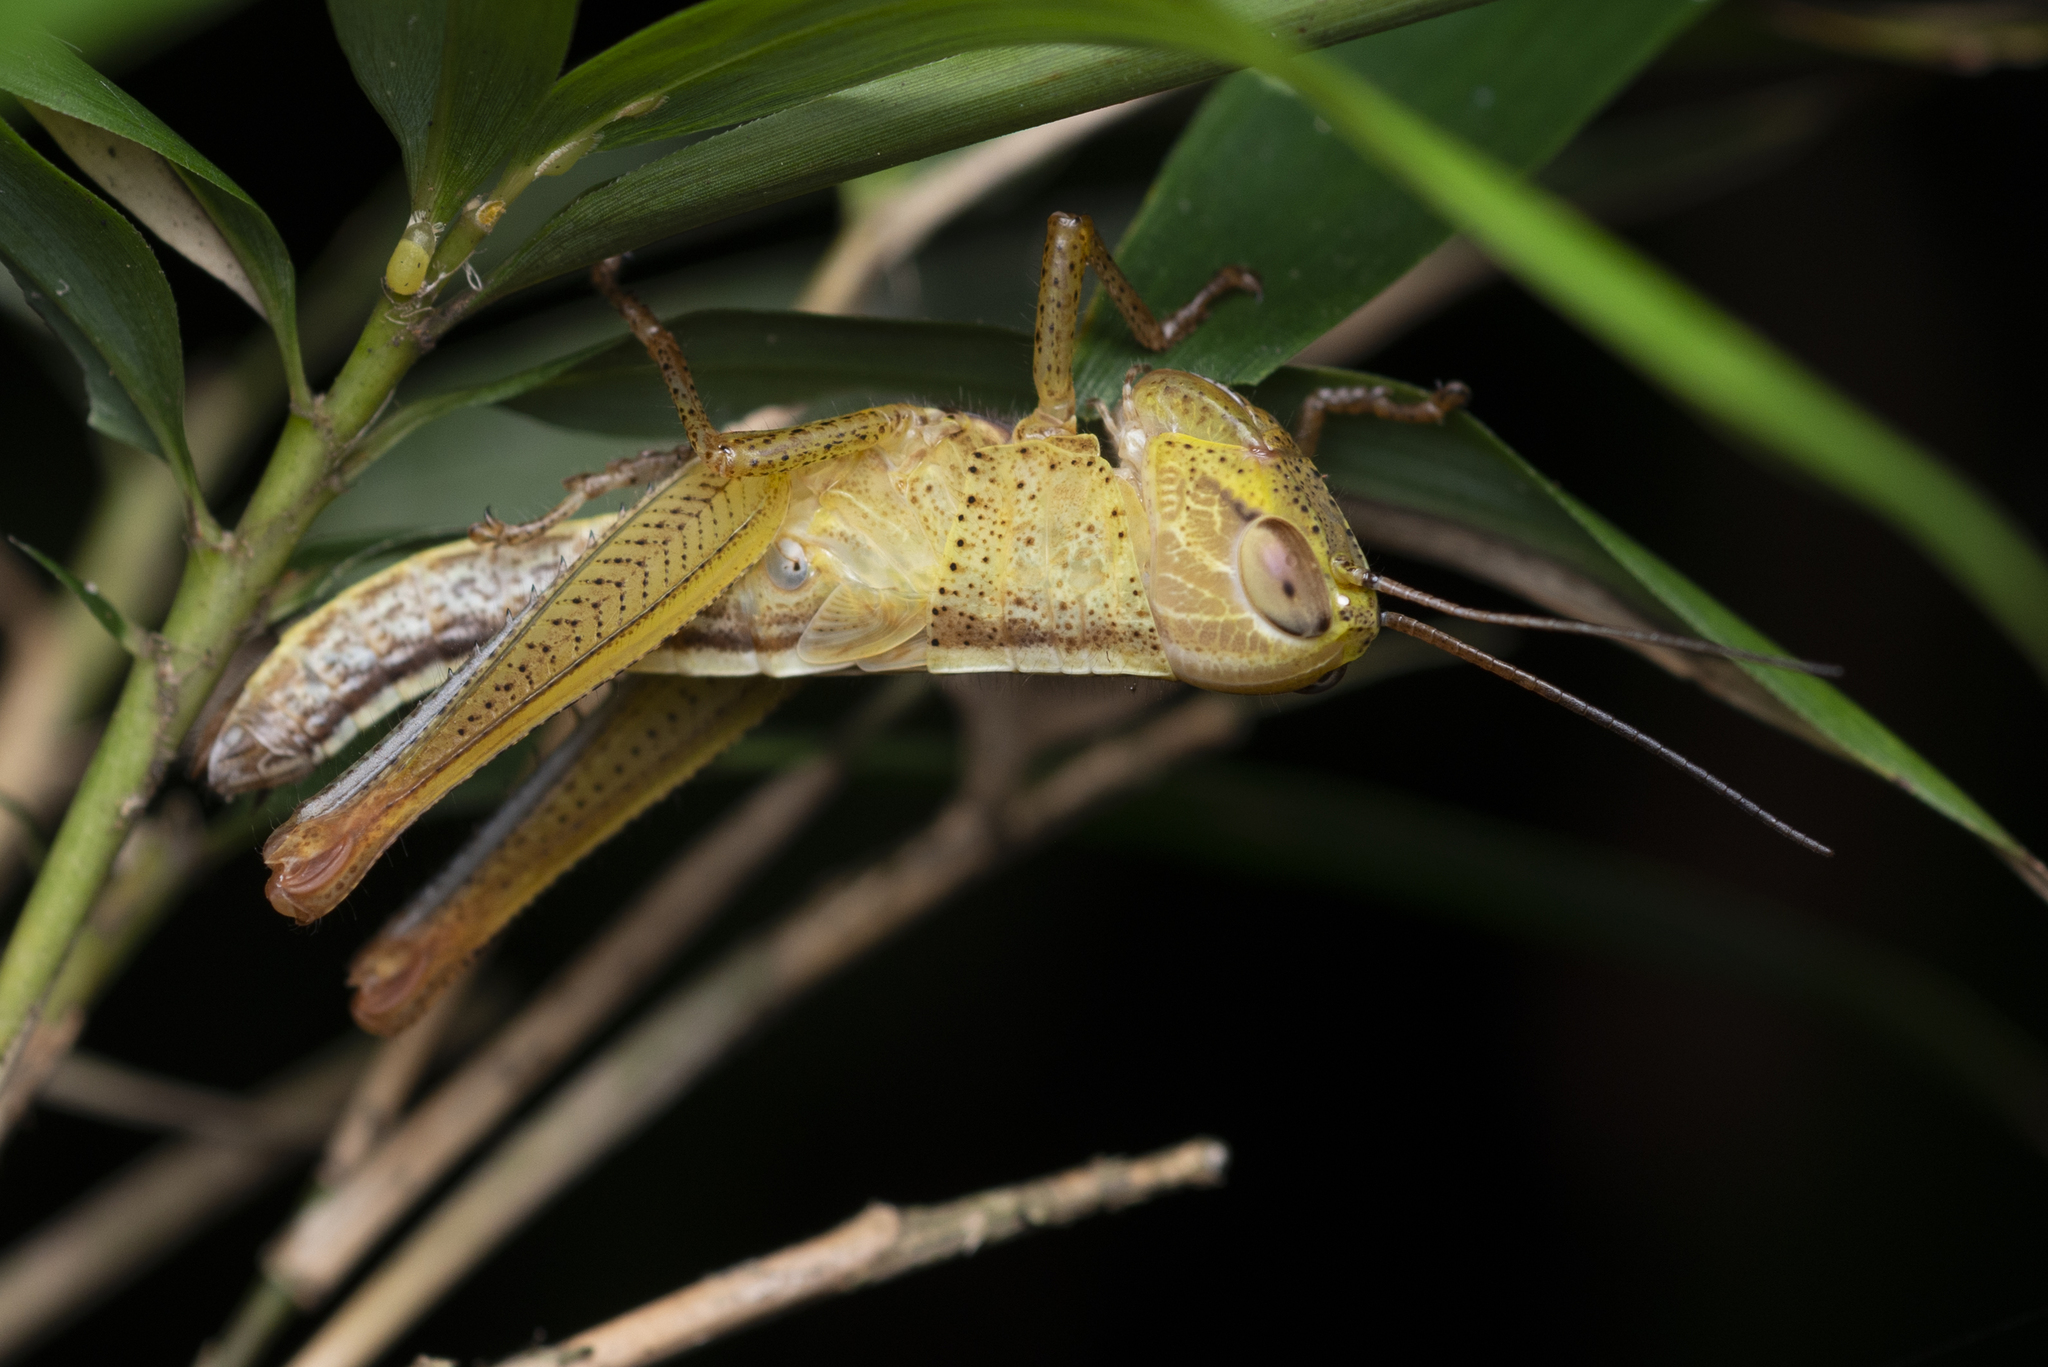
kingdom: Animalia
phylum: Arthropoda
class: Insecta
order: Orthoptera
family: Acrididae
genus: Hieroglyphus
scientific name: Hieroglyphus tonkinensis
